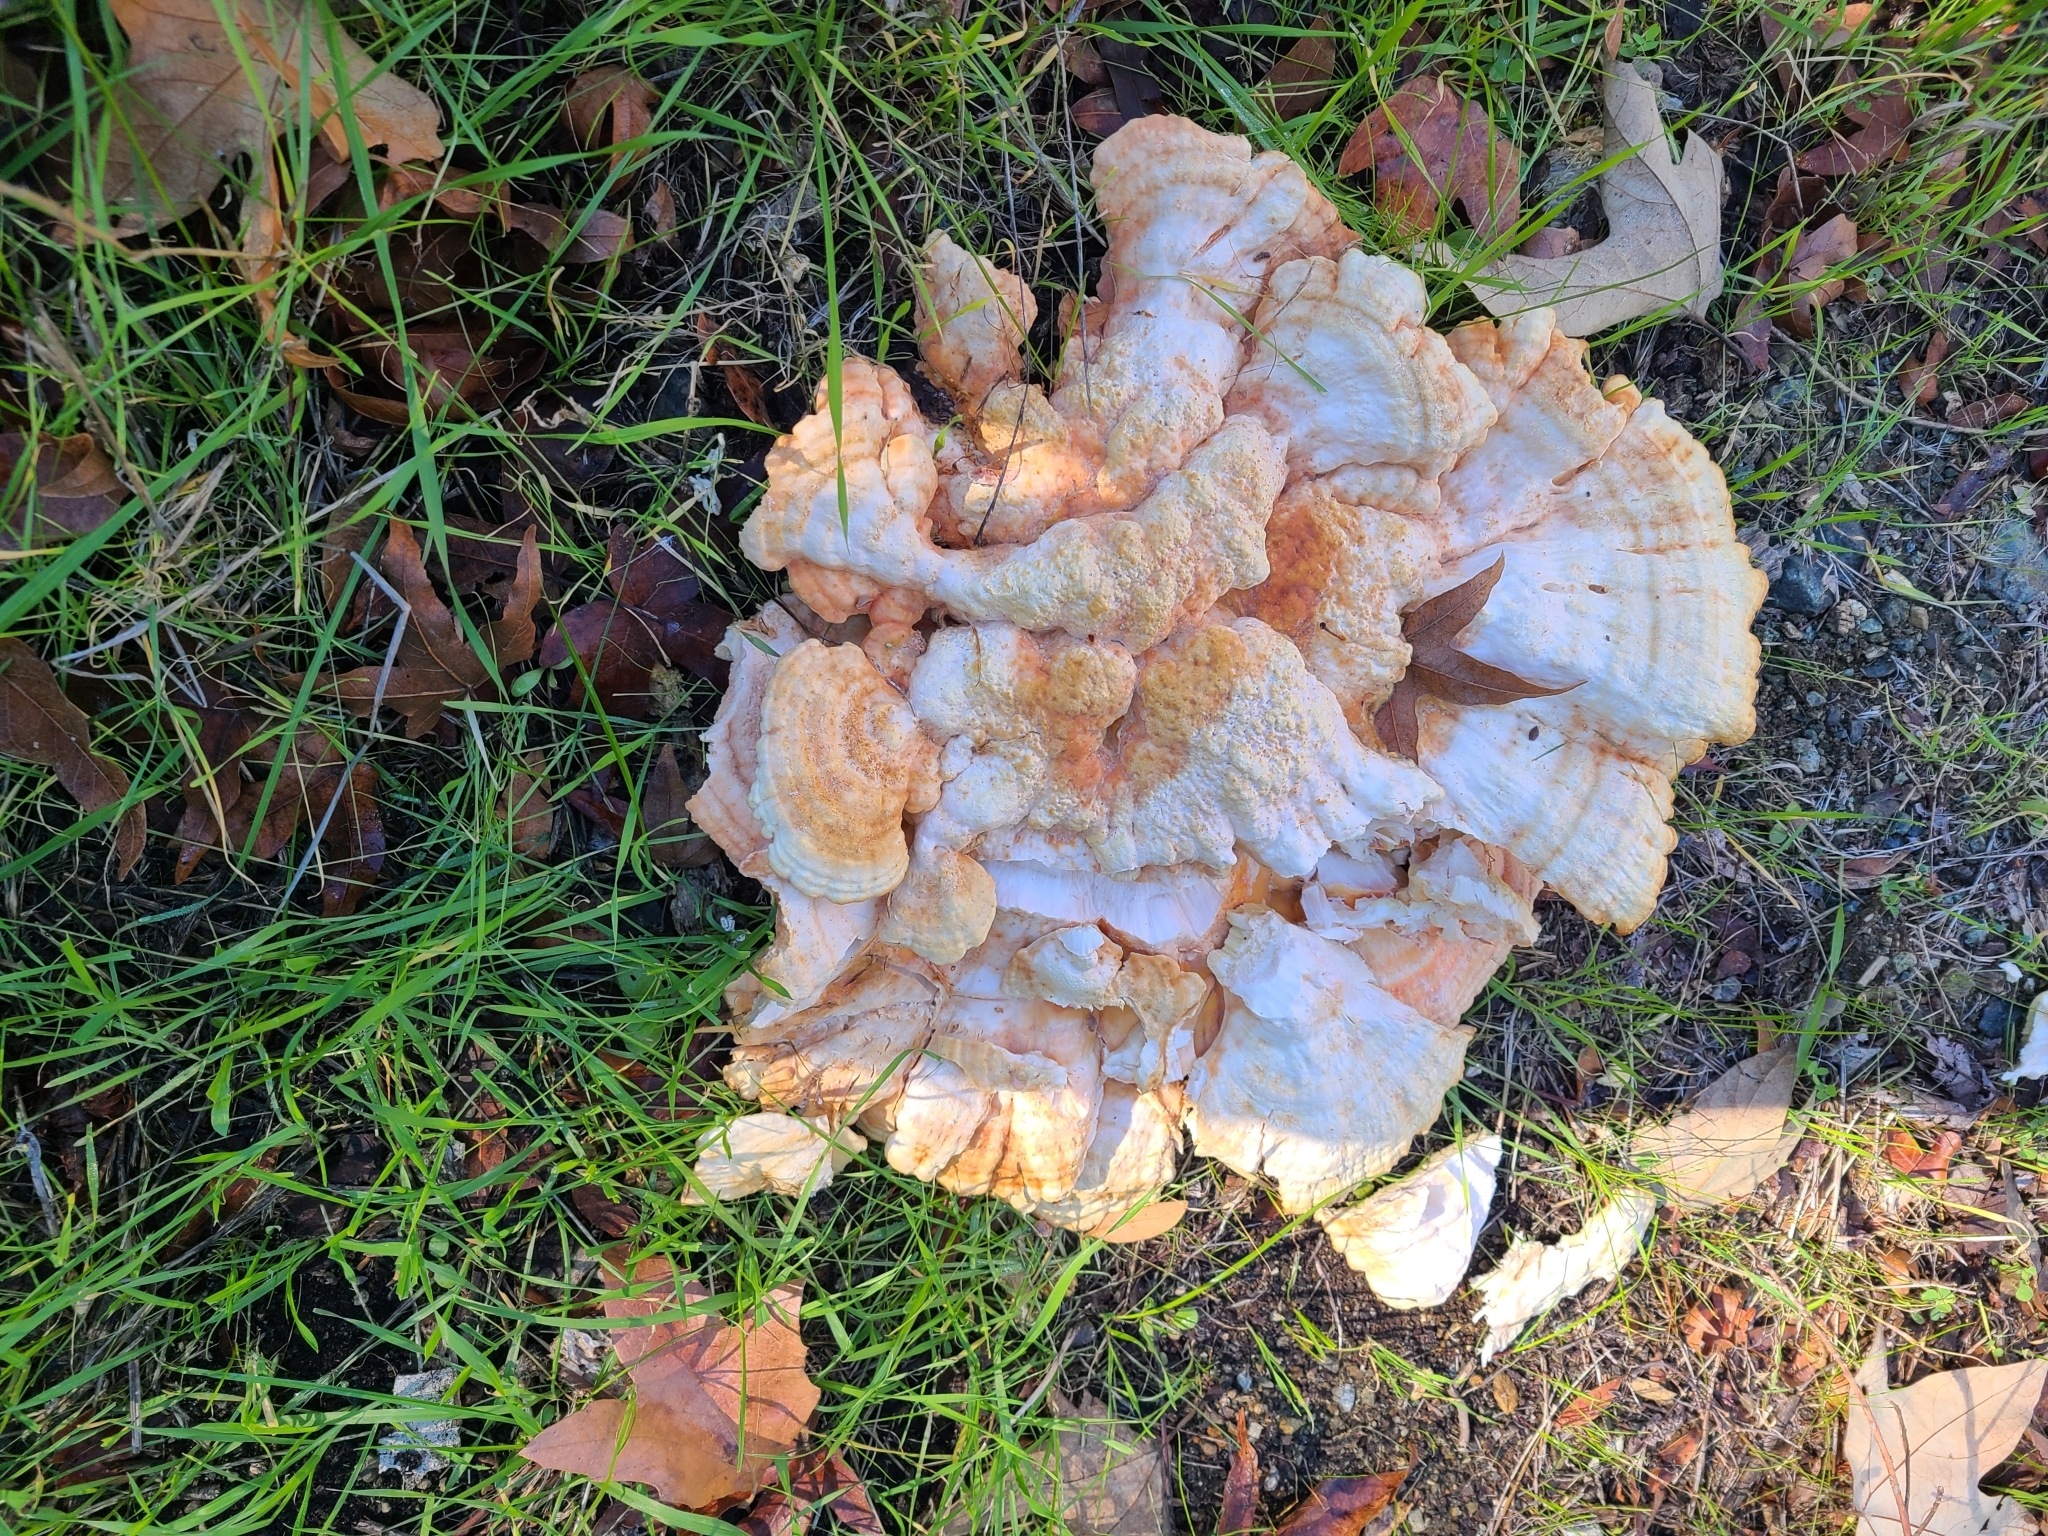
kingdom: Fungi
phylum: Basidiomycota
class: Agaricomycetes
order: Polyporales
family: Laetiporaceae
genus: Laetiporus
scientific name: Laetiporus gilbertsonii
